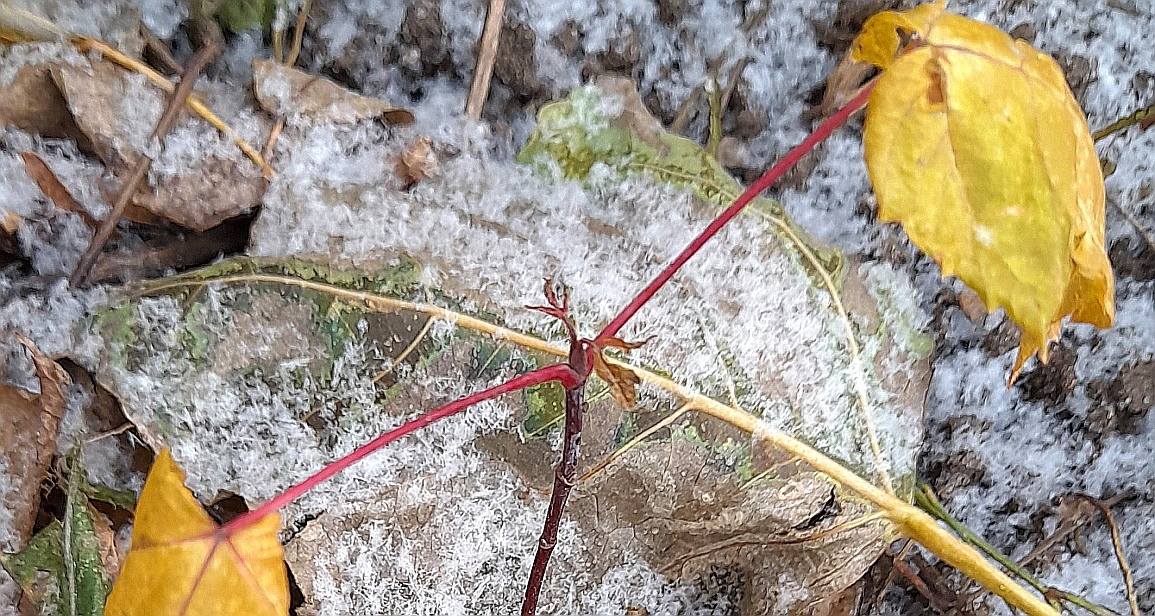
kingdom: Plantae
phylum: Tracheophyta
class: Magnoliopsida
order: Sapindales
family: Sapindaceae
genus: Acer
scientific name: Acer negundo
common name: Ashleaf maple
